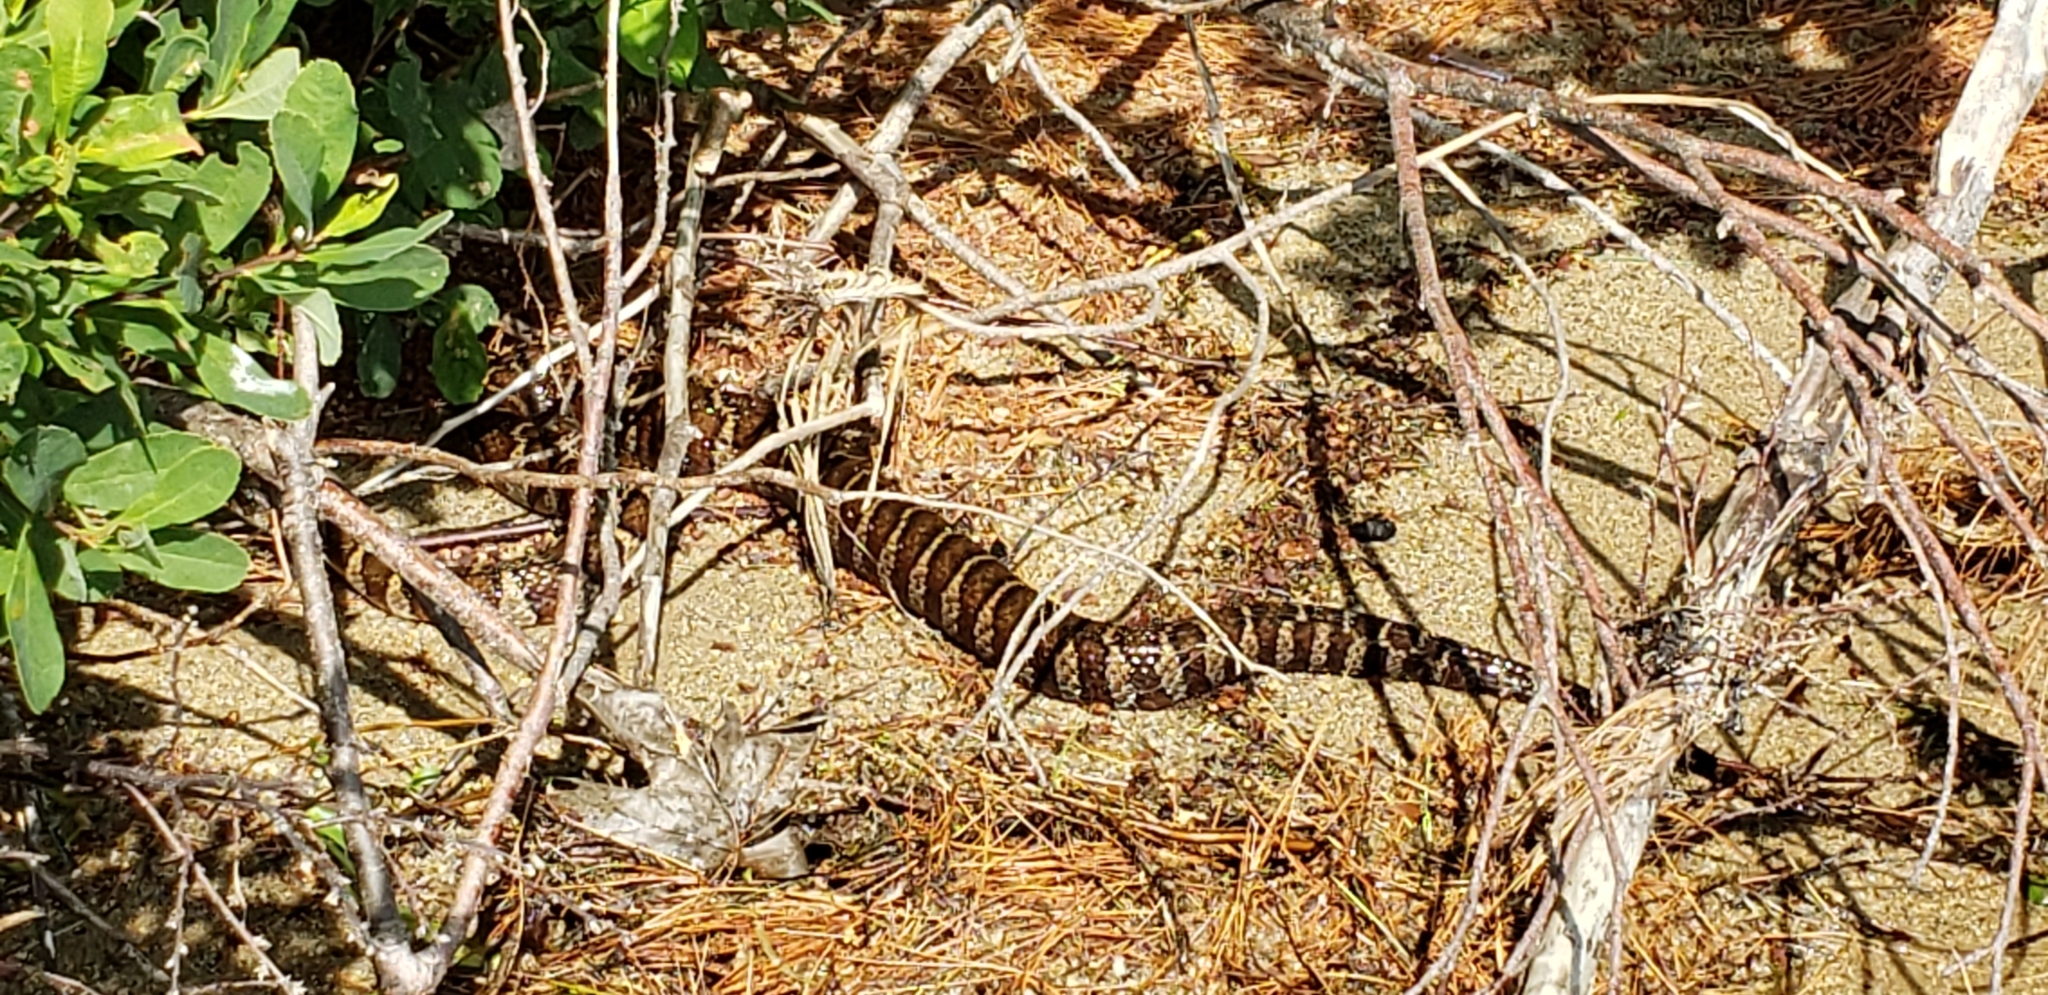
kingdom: Animalia
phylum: Chordata
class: Squamata
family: Colubridae
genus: Nerodia
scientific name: Nerodia sipedon
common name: Northern water snake
